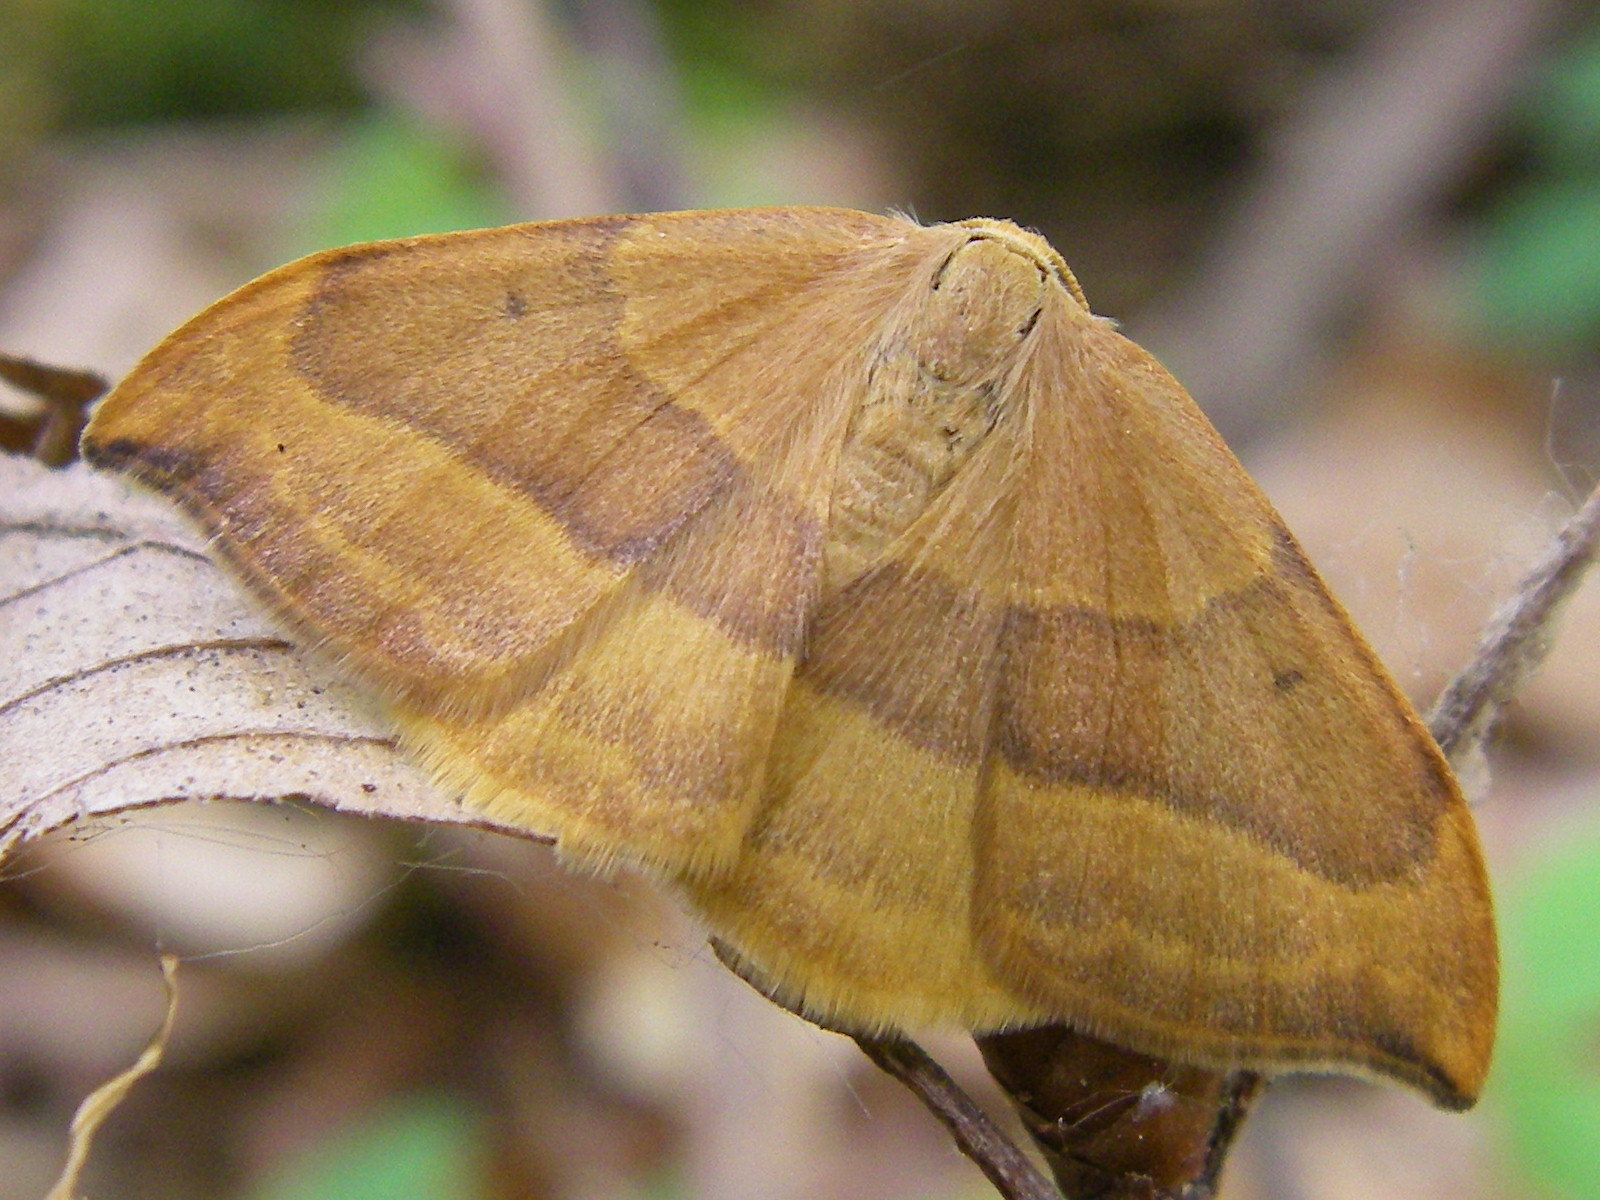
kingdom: Animalia
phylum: Arthropoda
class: Insecta
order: Lepidoptera
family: Drepanidae
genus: Watsonalla
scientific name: Watsonalla cultraria
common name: Barred hook-tip
